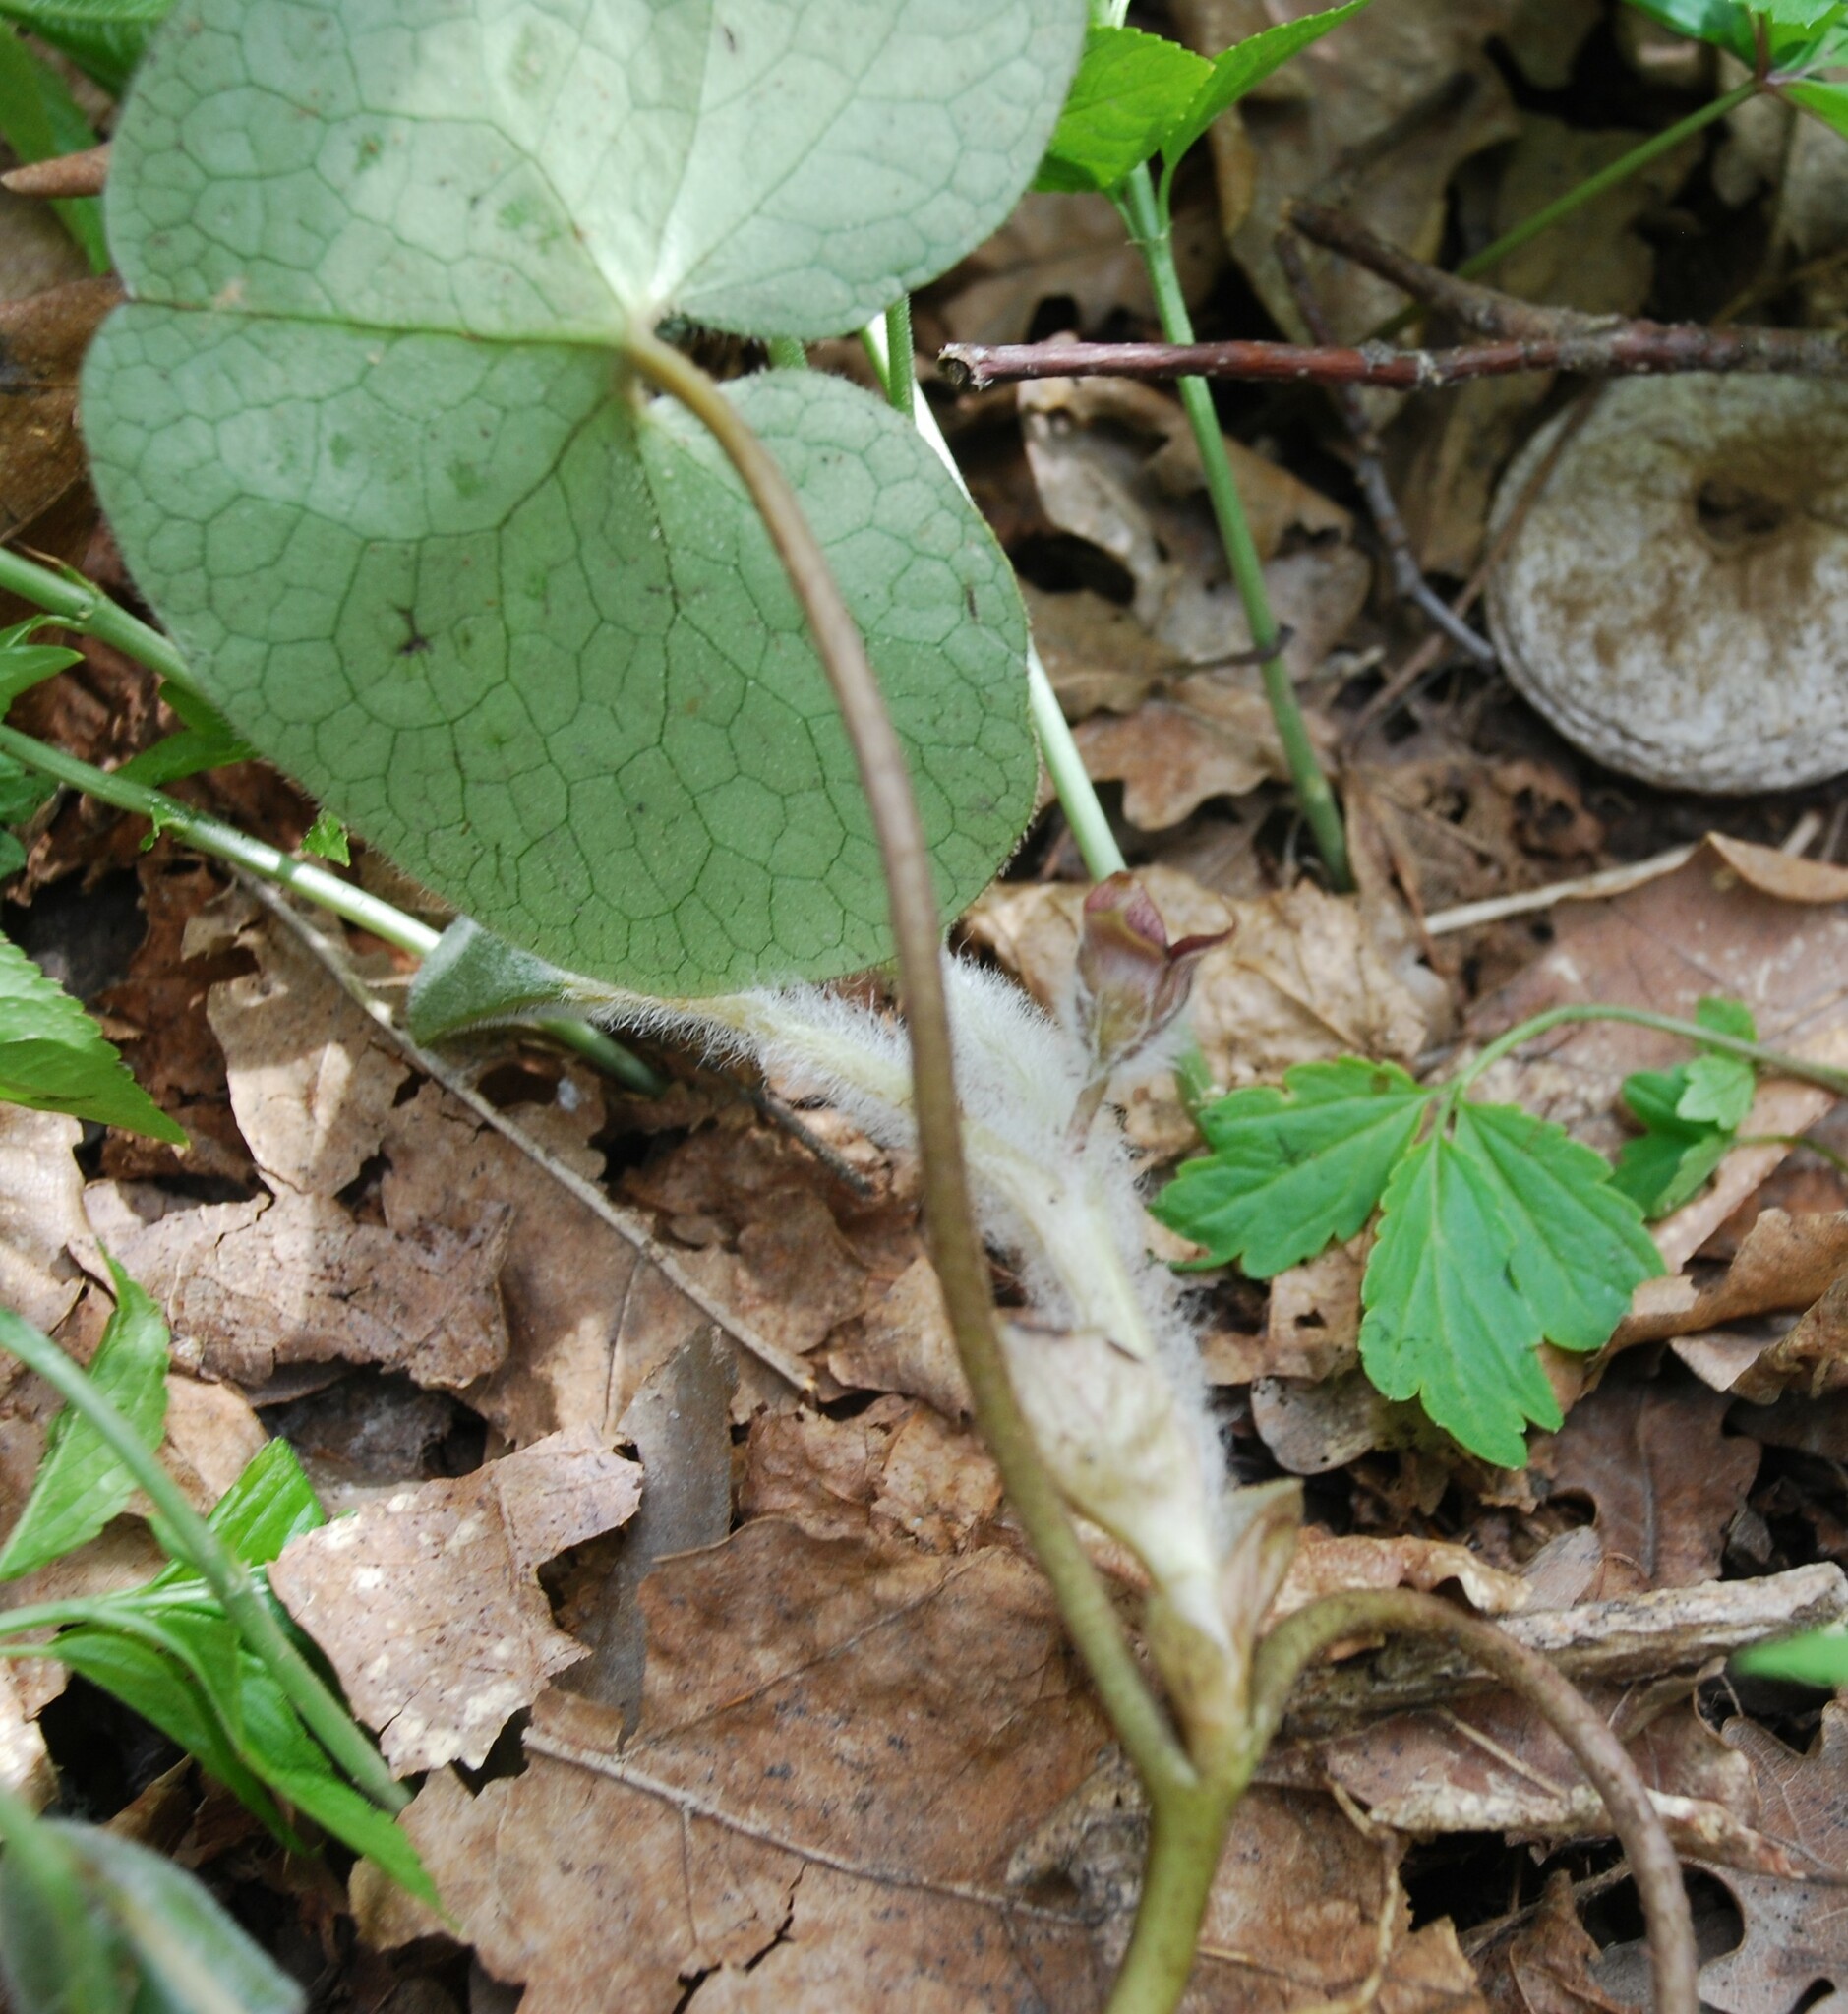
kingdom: Plantae
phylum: Tracheophyta
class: Magnoliopsida
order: Piperales
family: Aristolochiaceae
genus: Asarum
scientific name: Asarum europaeum
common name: Asarabacca
